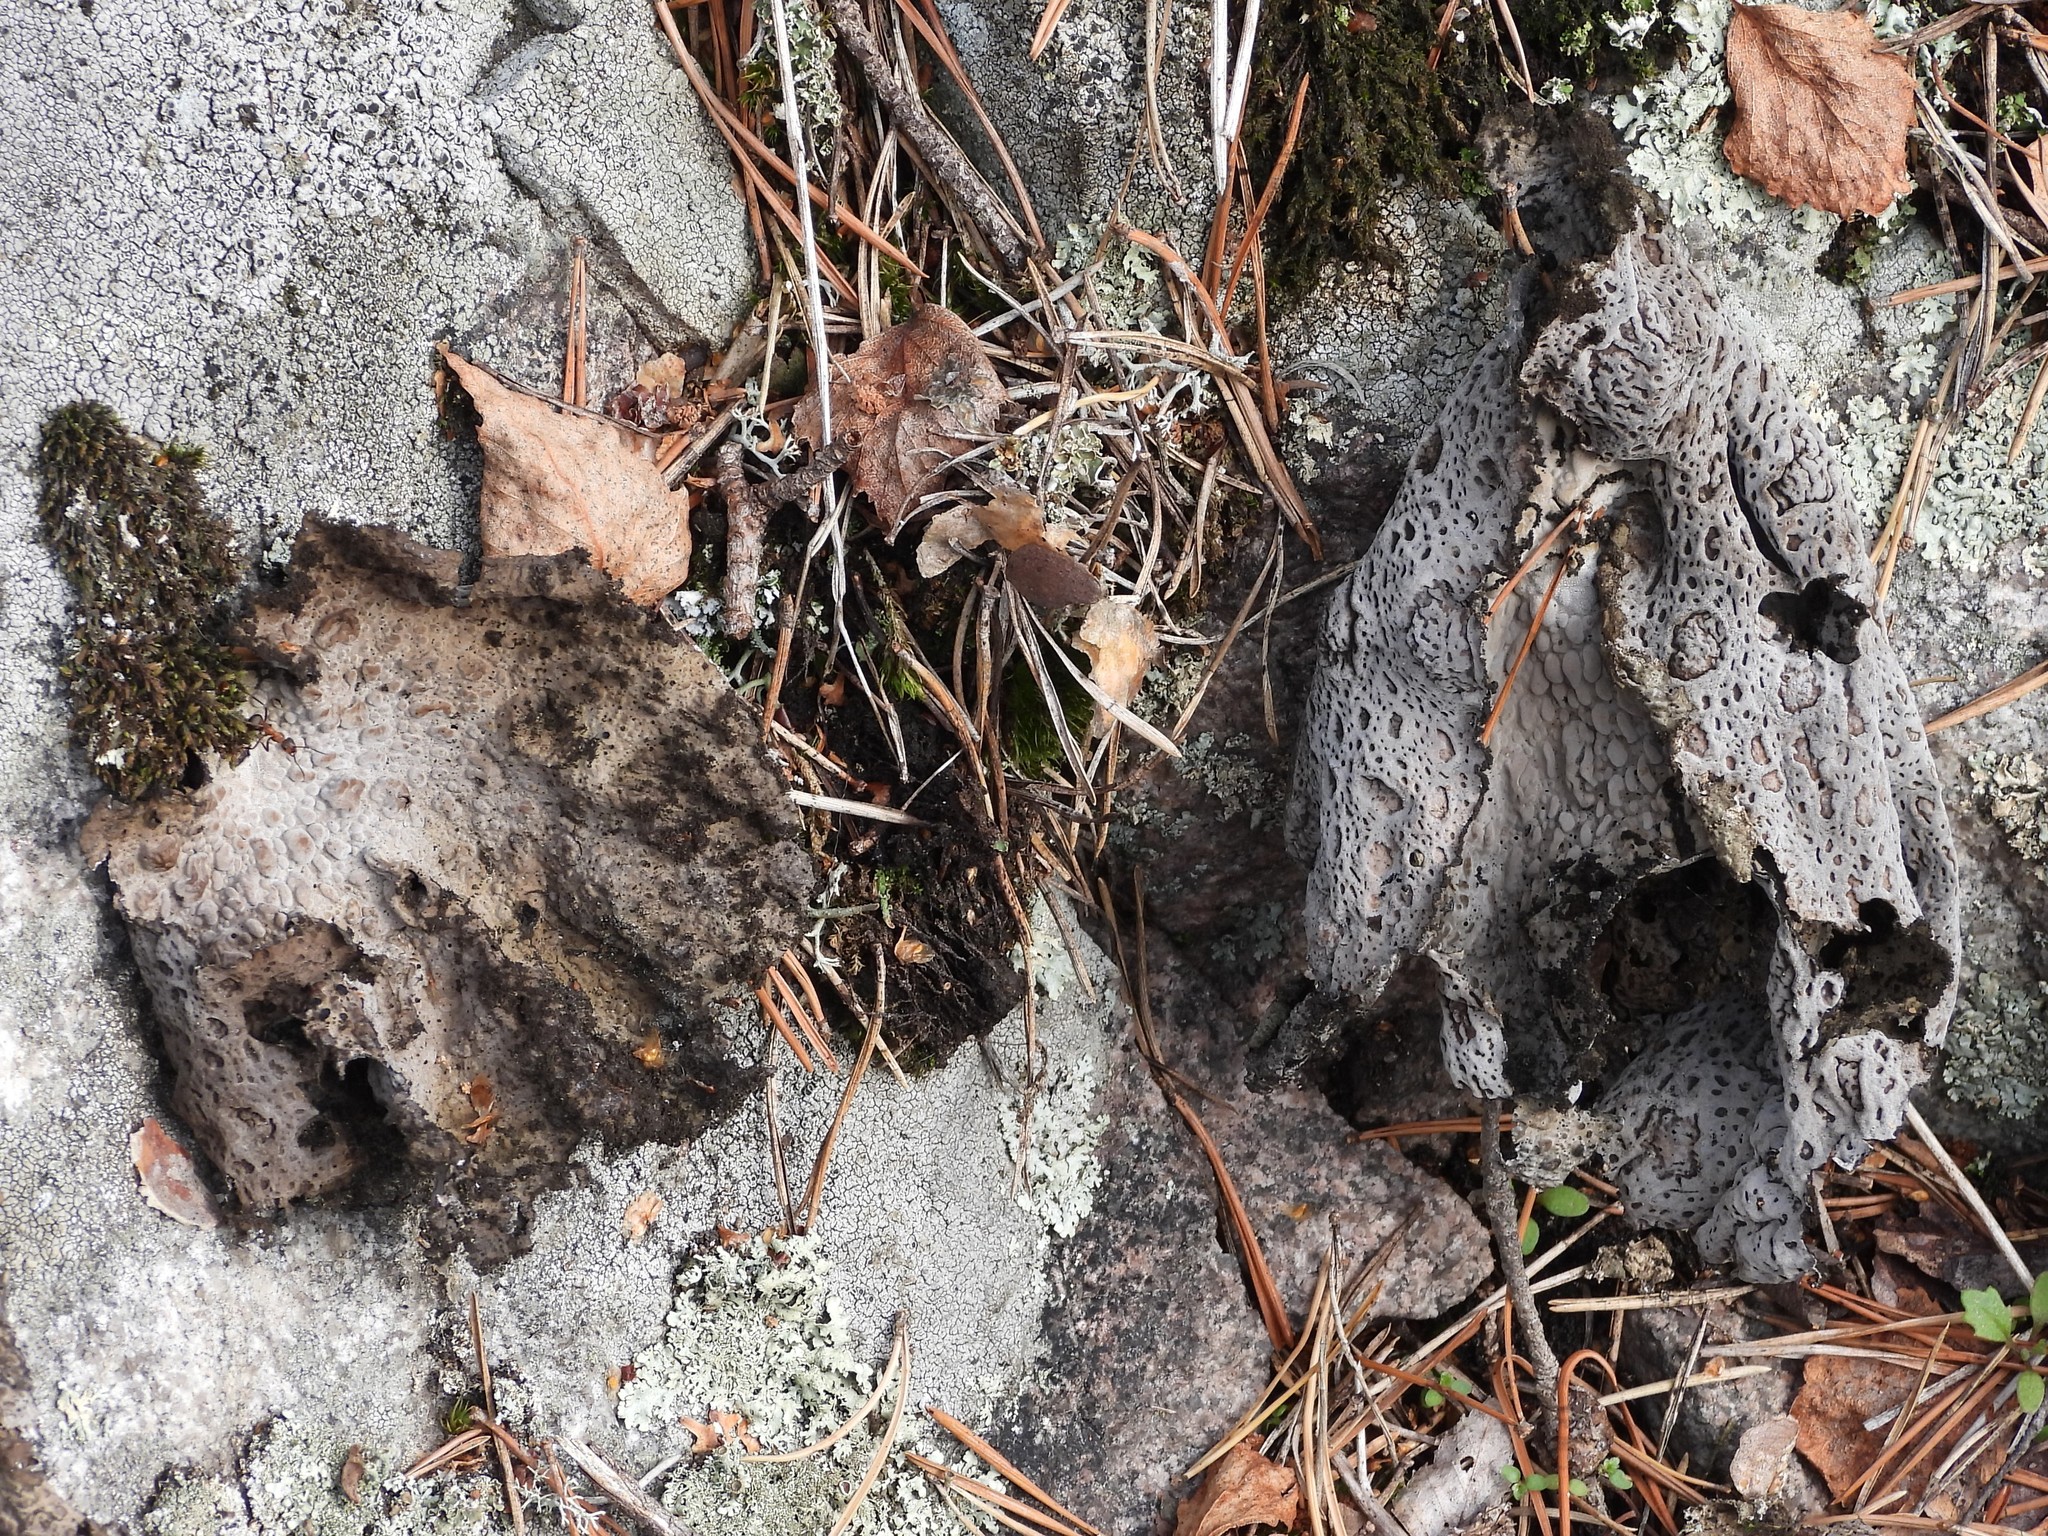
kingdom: Fungi
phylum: Ascomycota
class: Lecanoromycetes
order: Umbilicariales
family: Umbilicariaceae
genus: Lasallia
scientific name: Lasallia pustulata
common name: Blistered toadskin lichen
